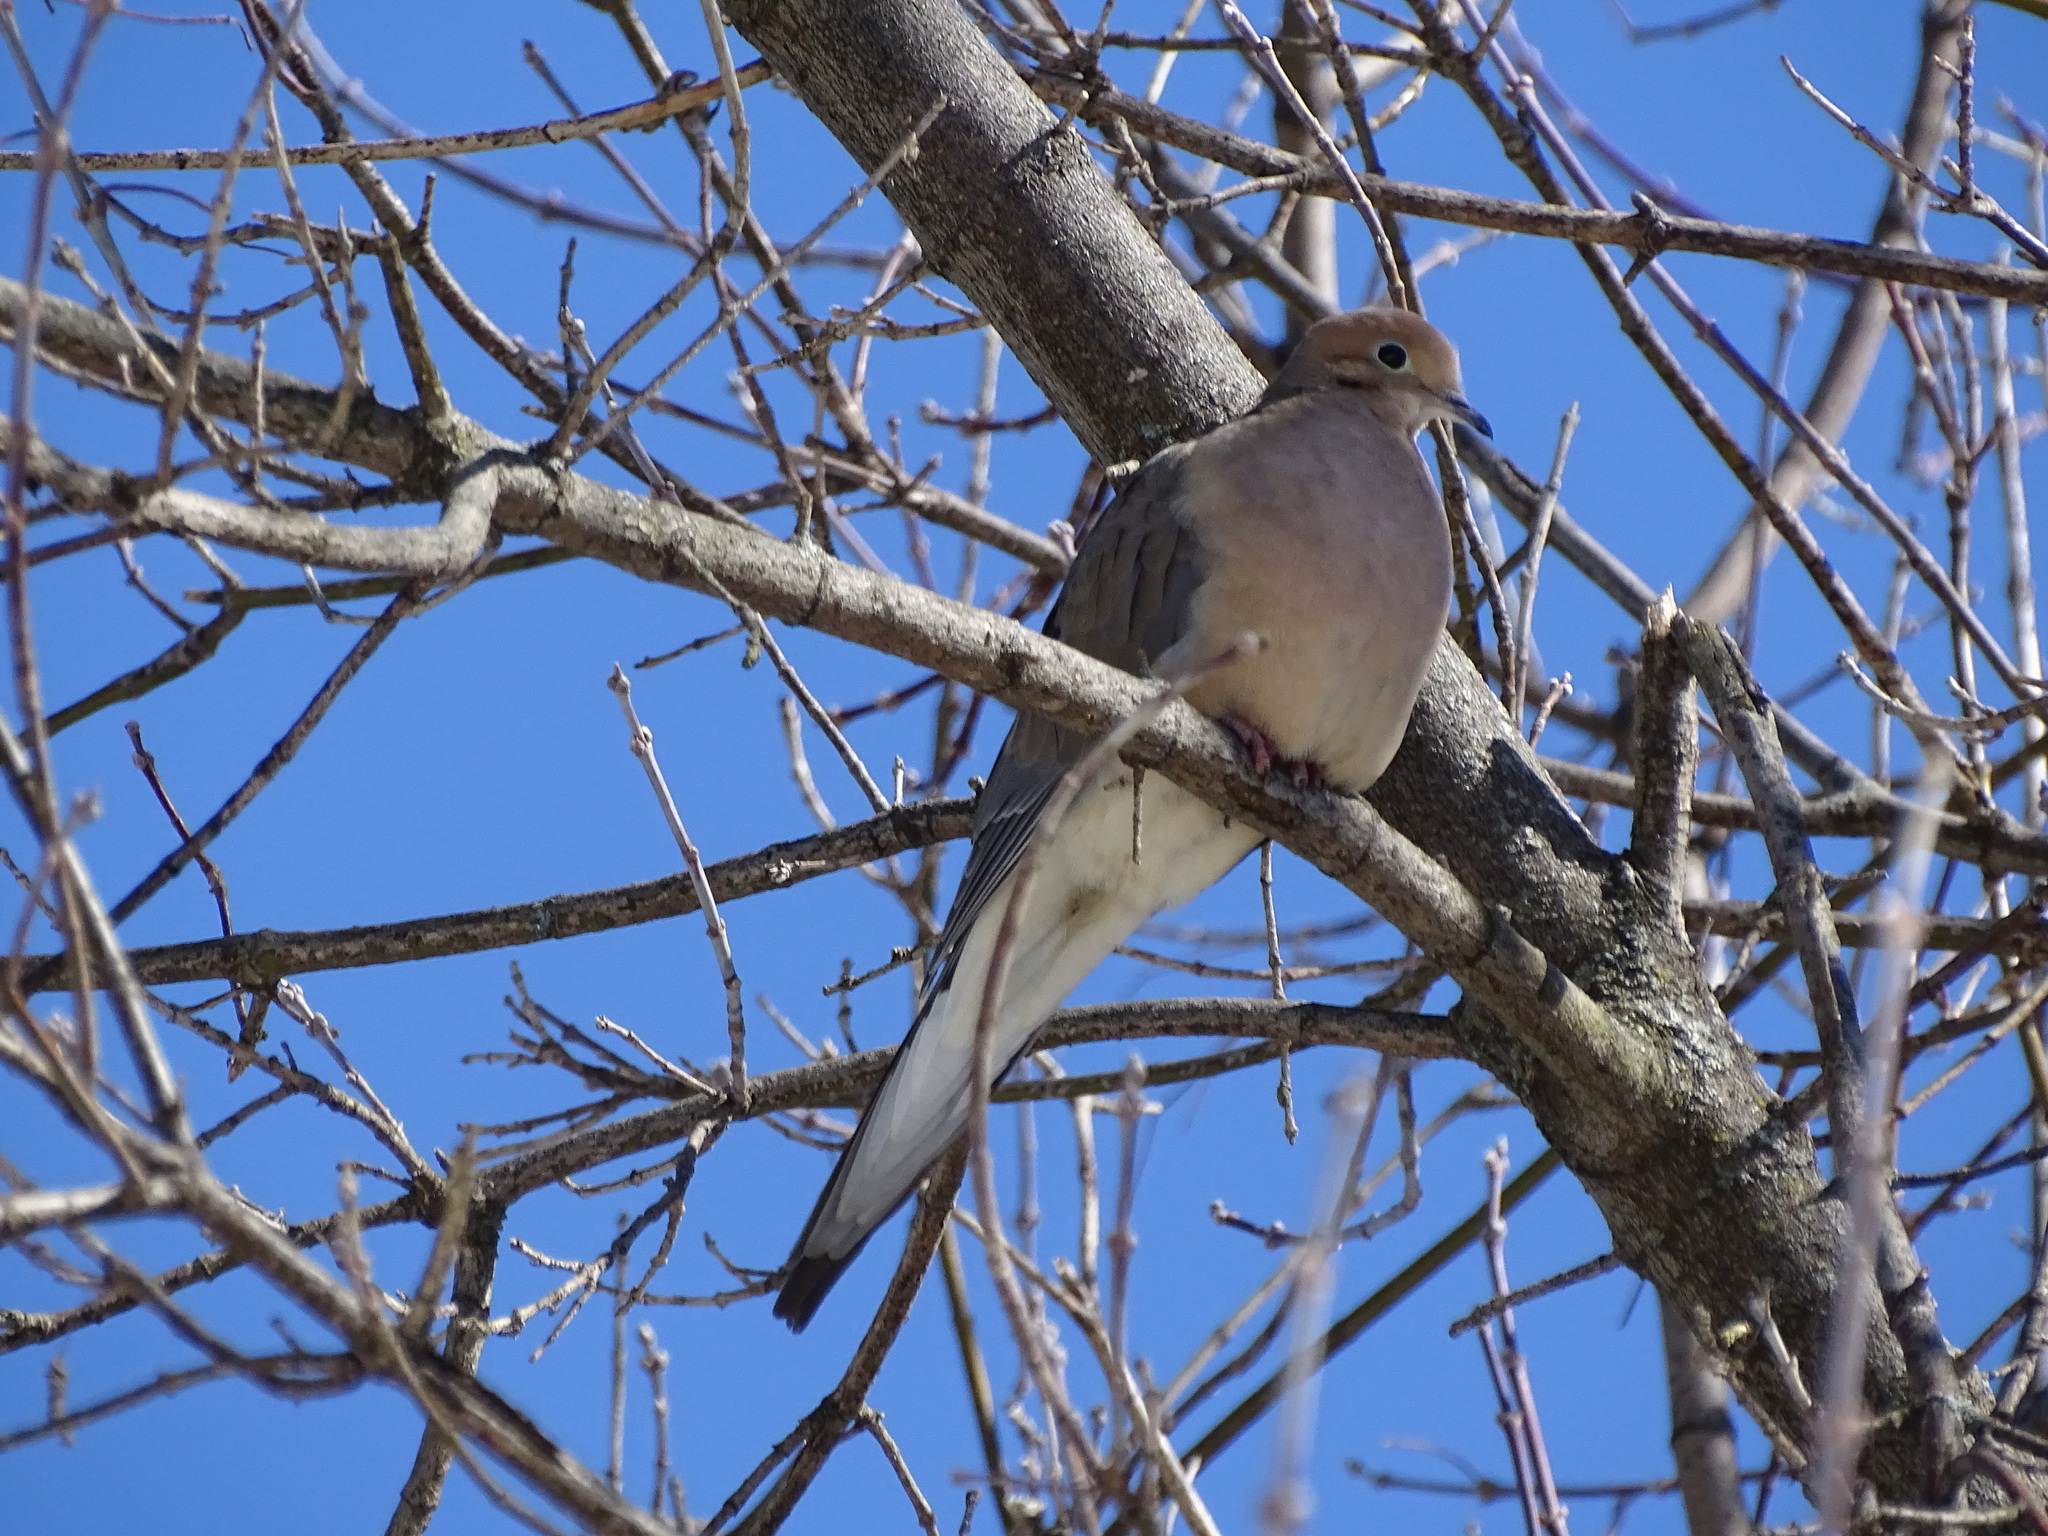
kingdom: Animalia
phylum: Chordata
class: Aves
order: Columbiformes
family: Columbidae
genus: Zenaida
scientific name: Zenaida macroura
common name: Mourning dove
